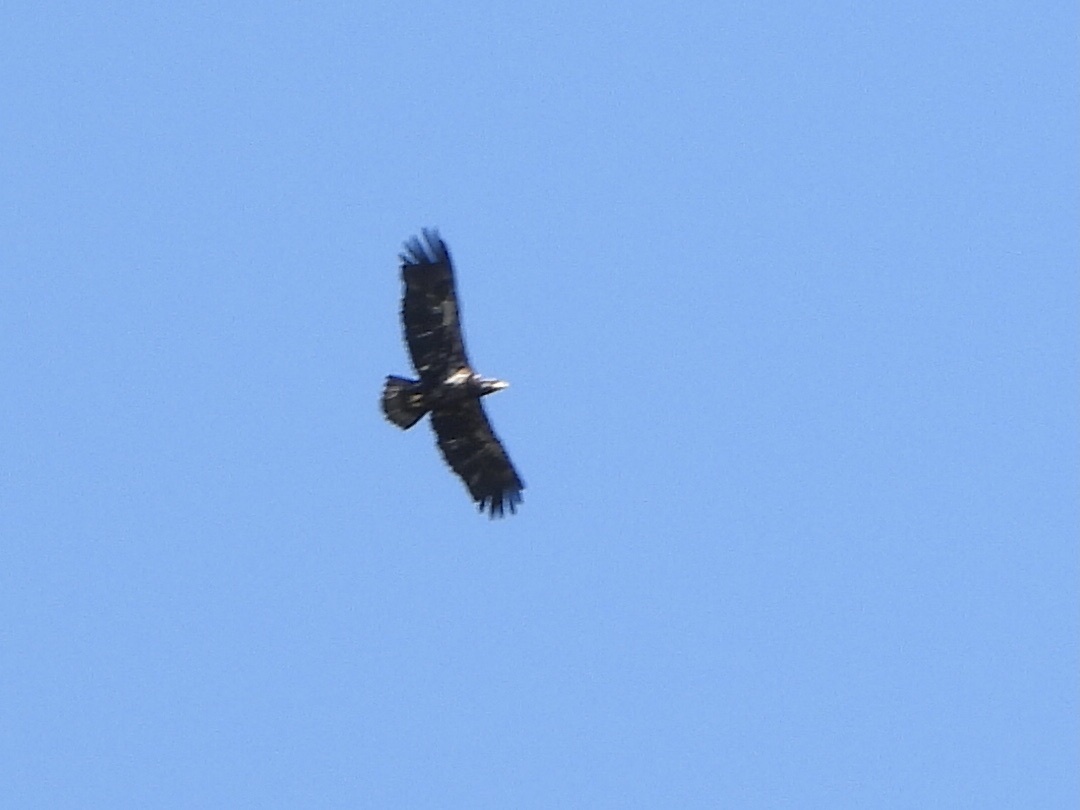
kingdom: Animalia
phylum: Chordata
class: Aves
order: Accipitriformes
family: Accipitridae
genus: Haliaeetus
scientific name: Haliaeetus leucocephalus
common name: Bald eagle
